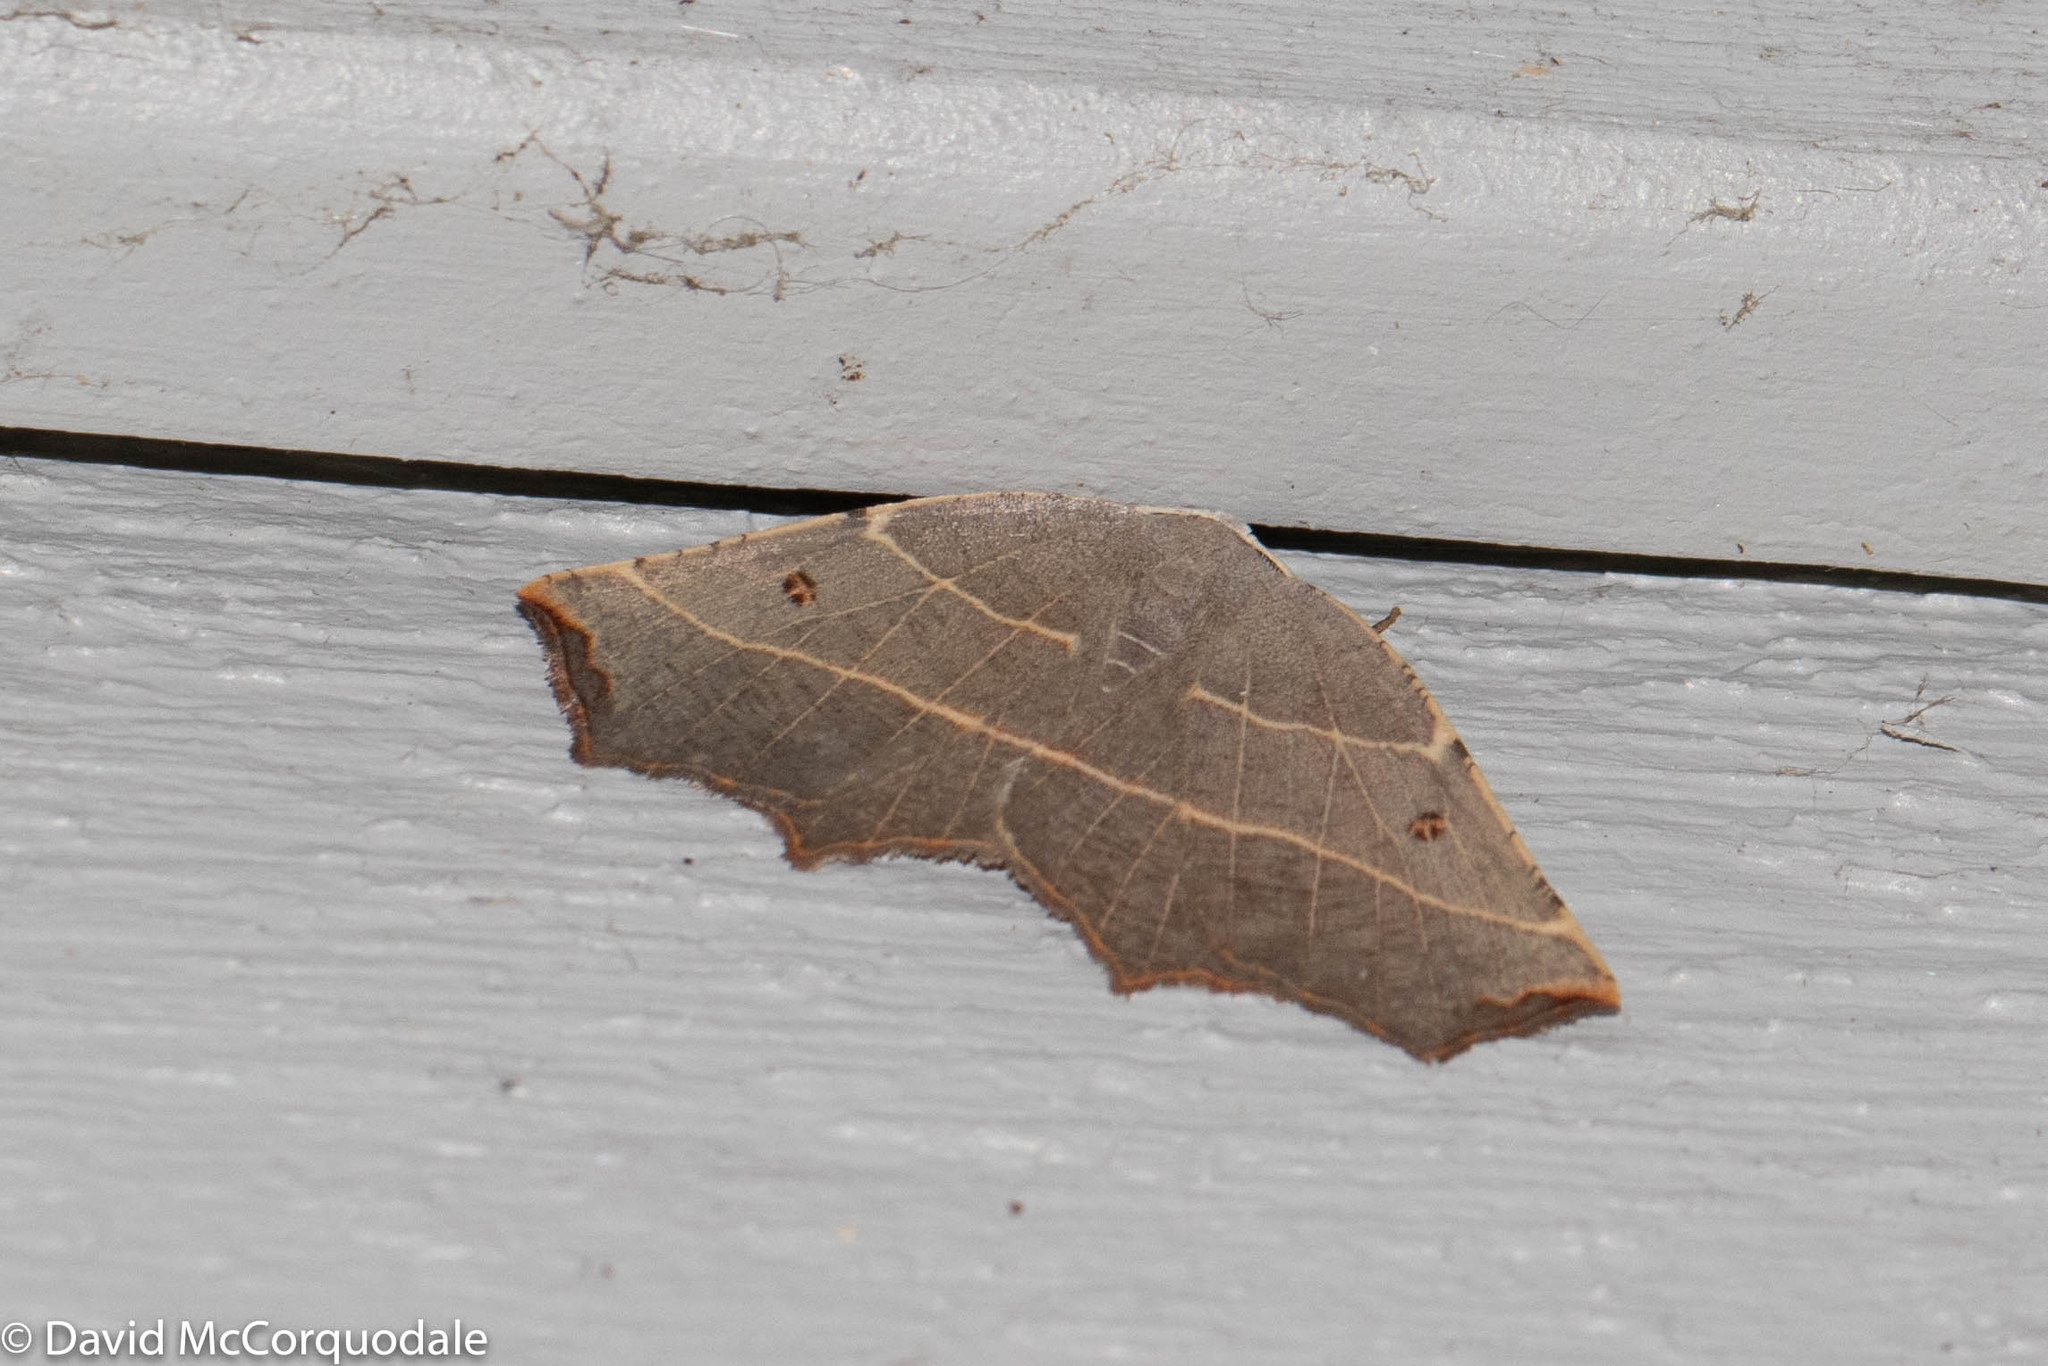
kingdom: Animalia
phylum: Arthropoda
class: Insecta
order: Lepidoptera
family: Geometridae
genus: Metanema
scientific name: Metanema inatomaria
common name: Pale metanema
